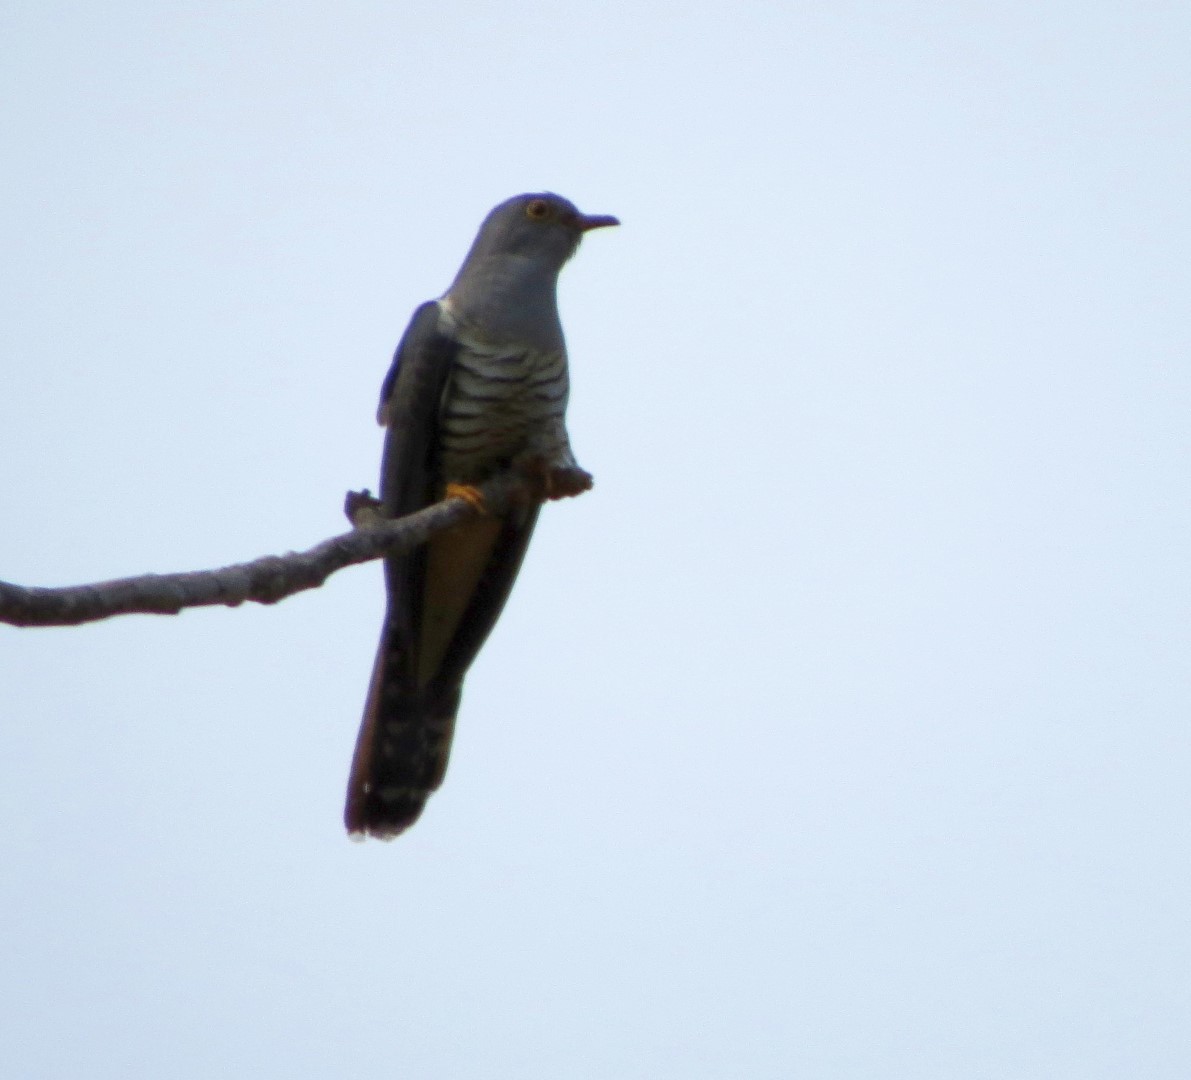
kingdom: Animalia
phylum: Chordata
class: Aves
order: Cuculiformes
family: Cuculidae
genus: Cuculus
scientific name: Cuculus rochii
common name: Madagascar cuckoo
